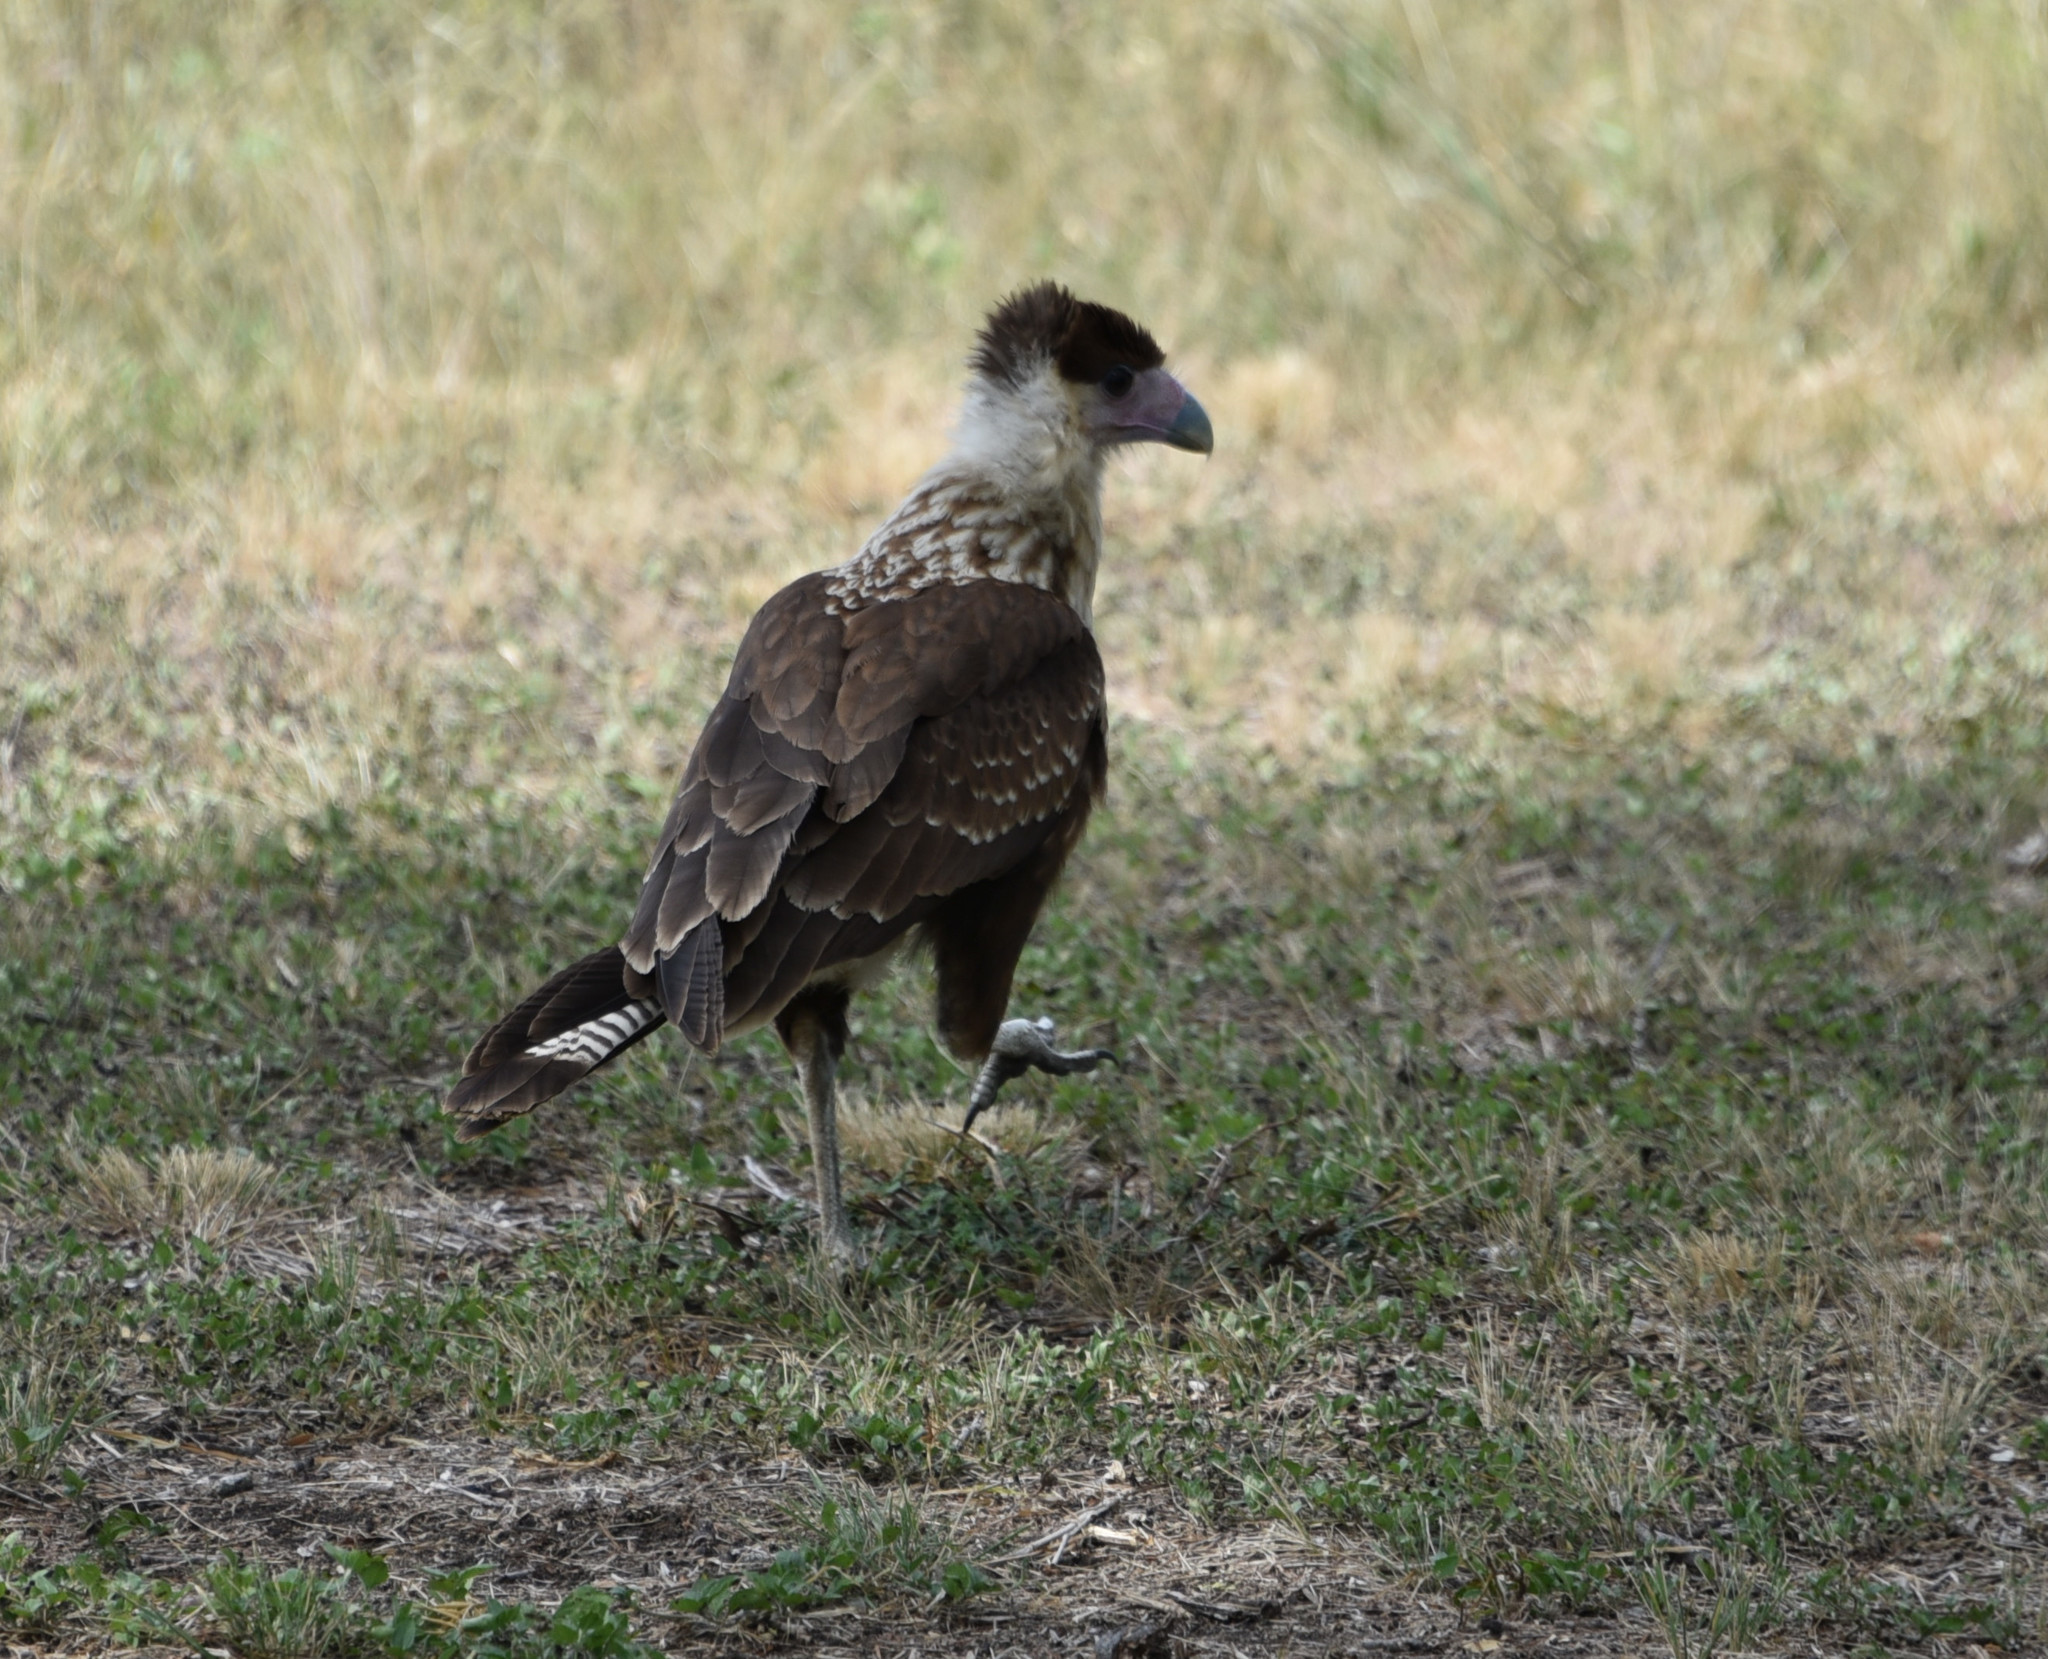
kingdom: Animalia
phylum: Chordata
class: Aves
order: Falconiformes
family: Falconidae
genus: Caracara
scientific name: Caracara plancus
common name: Southern caracara
